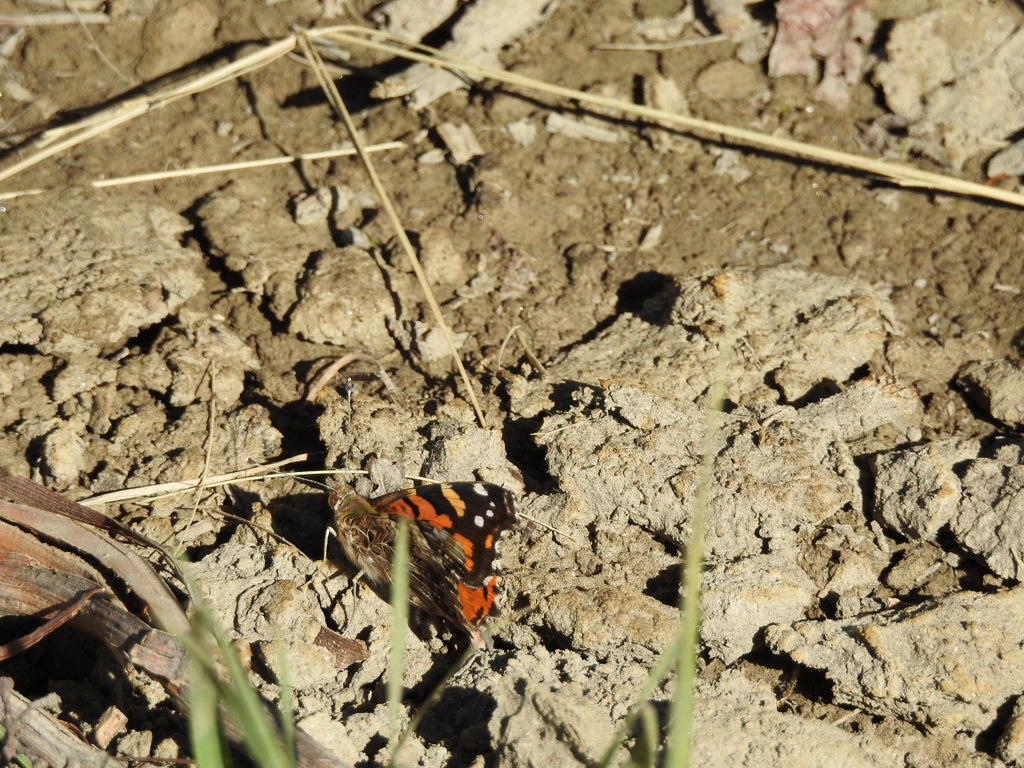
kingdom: Animalia
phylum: Arthropoda
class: Insecta
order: Lepidoptera
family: Nymphalidae
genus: Vanessa
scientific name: Vanessa carye
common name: Subtropical lady
